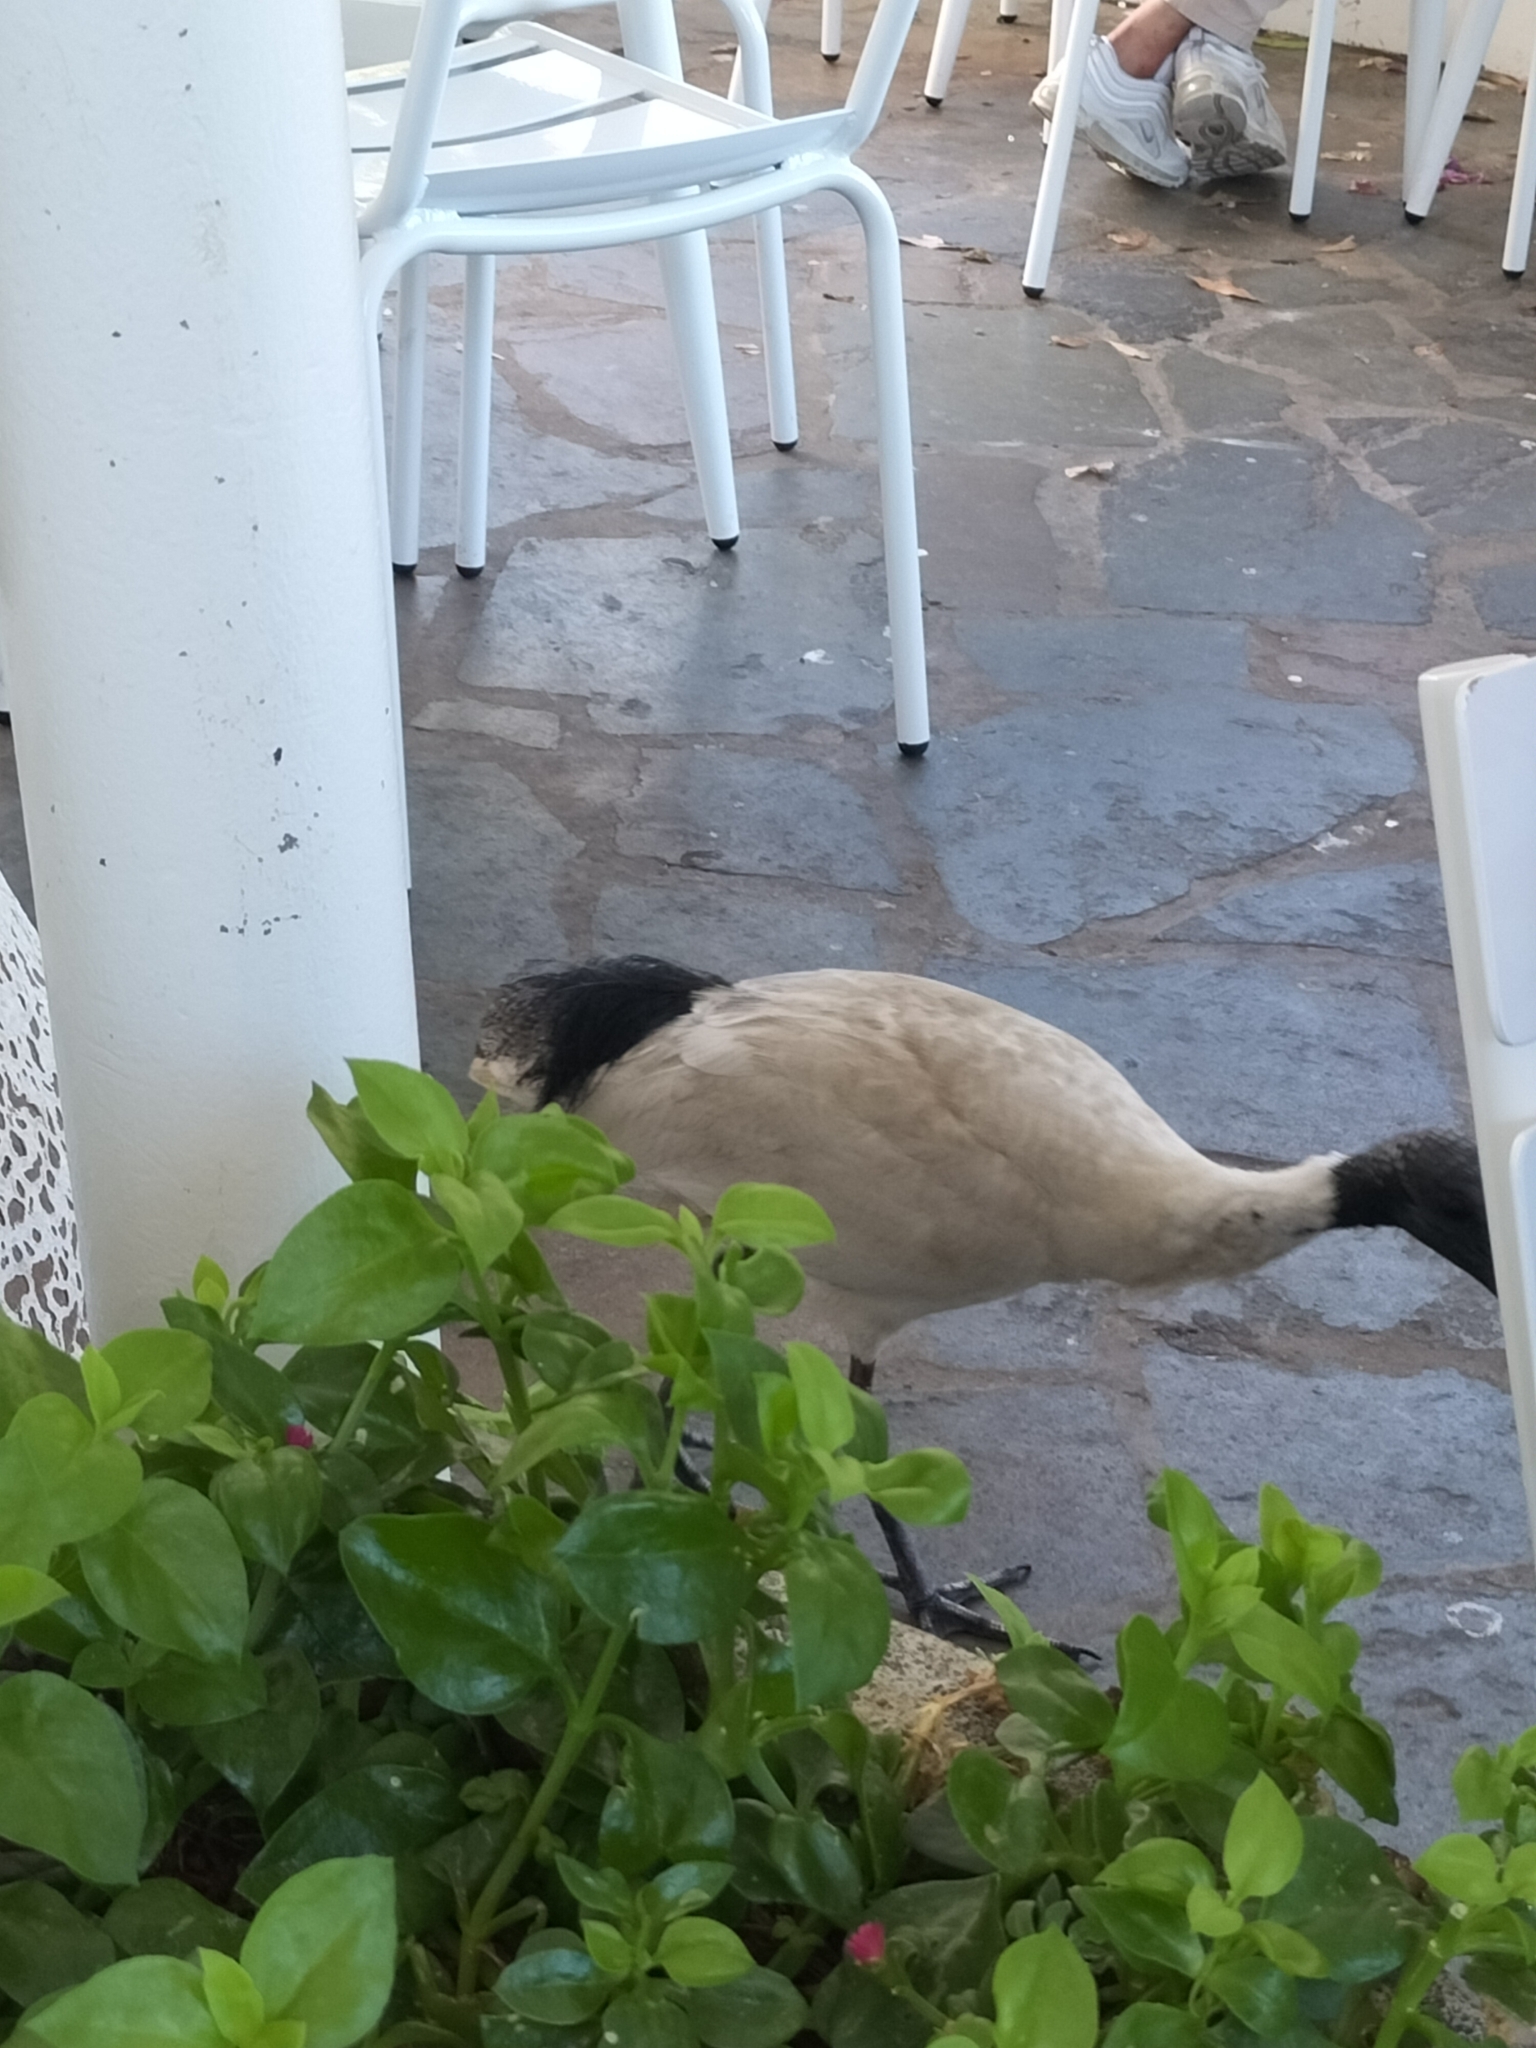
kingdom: Animalia
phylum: Chordata
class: Aves
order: Pelecaniformes
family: Threskiornithidae
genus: Threskiornis
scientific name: Threskiornis molucca
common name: Australian white ibis
